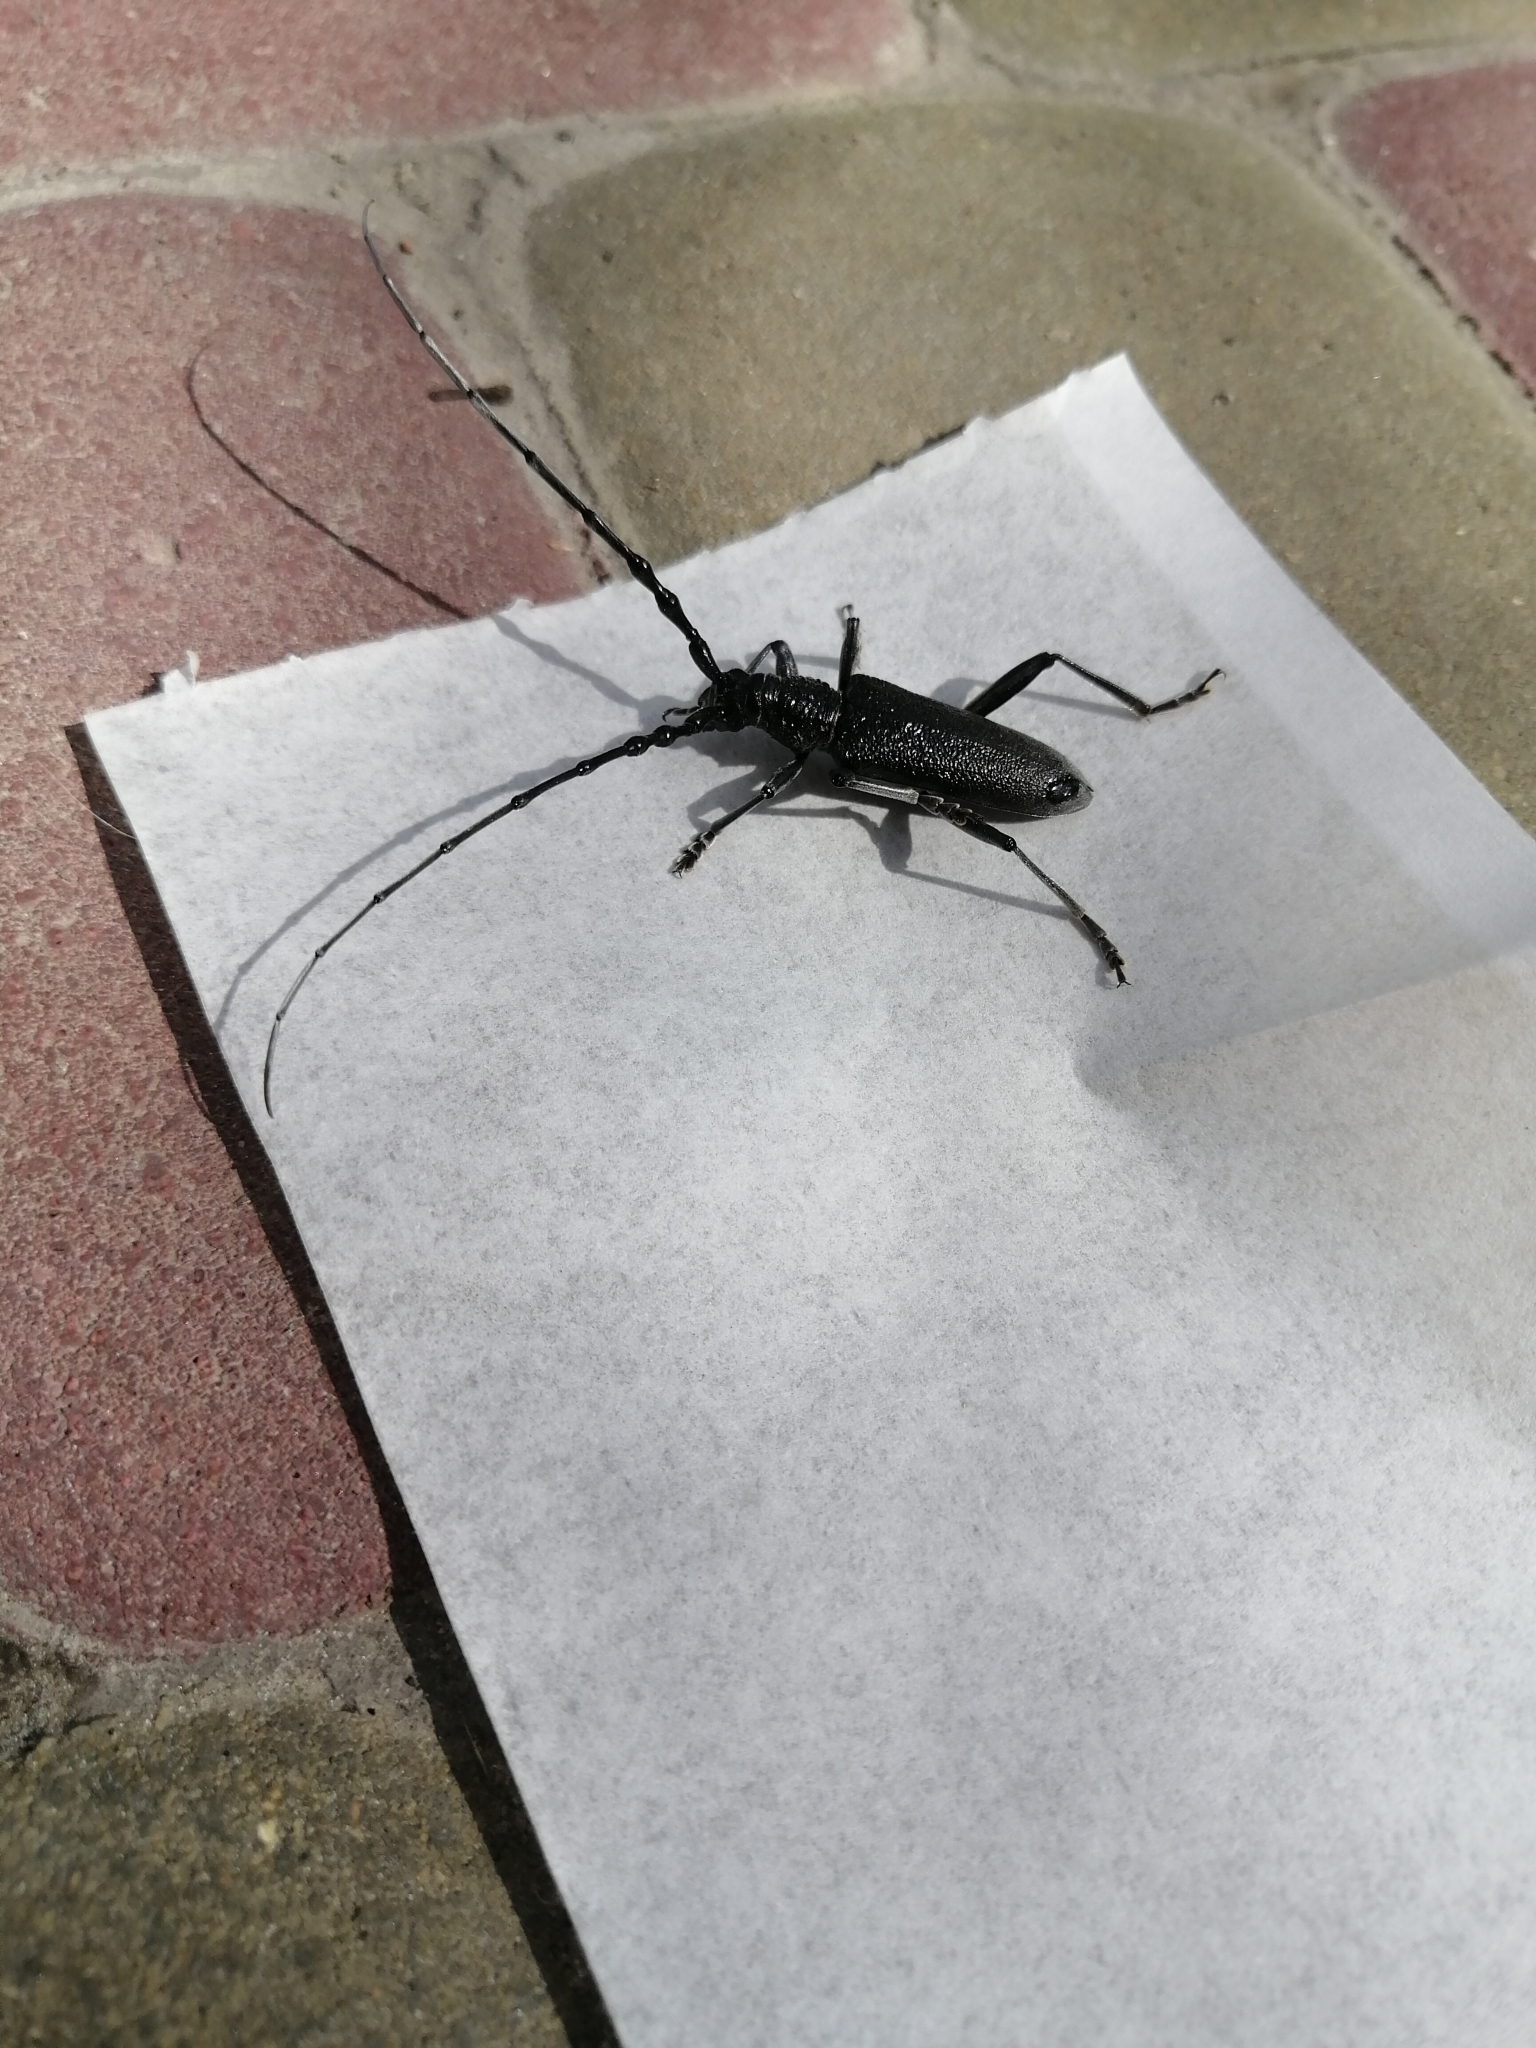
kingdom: Animalia
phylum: Arthropoda
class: Insecta
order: Coleoptera
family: Cerambycidae
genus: Cerambyx
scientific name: Cerambyx scopolii
